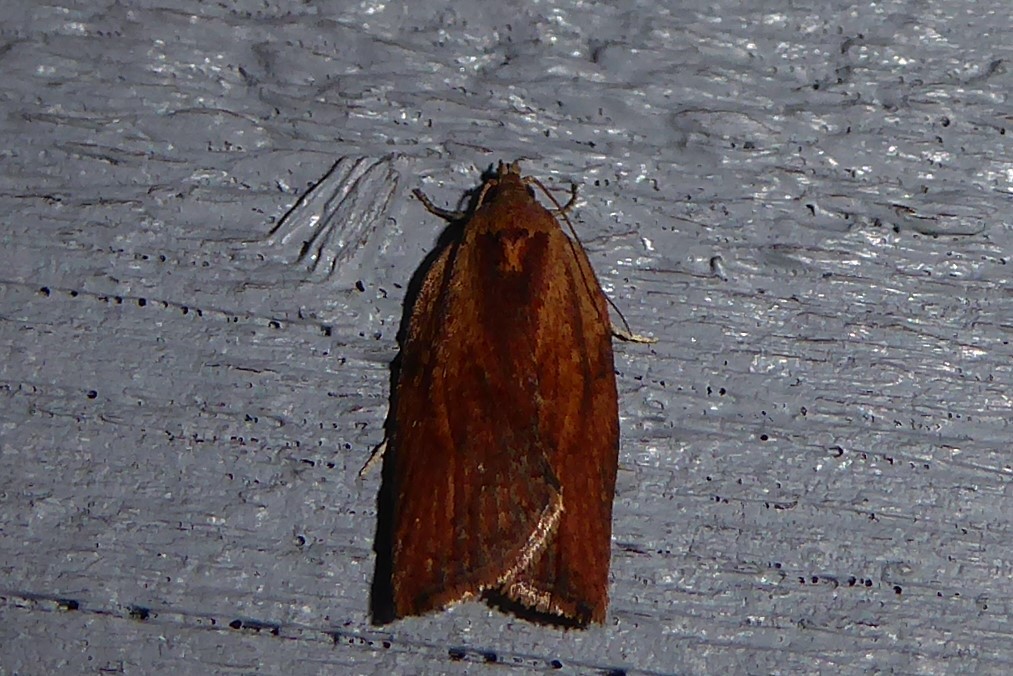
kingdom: Animalia
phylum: Arthropoda
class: Insecta
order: Lepidoptera
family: Tortricidae
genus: Epiphyas
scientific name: Epiphyas postvittana
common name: Light brown apple moth
